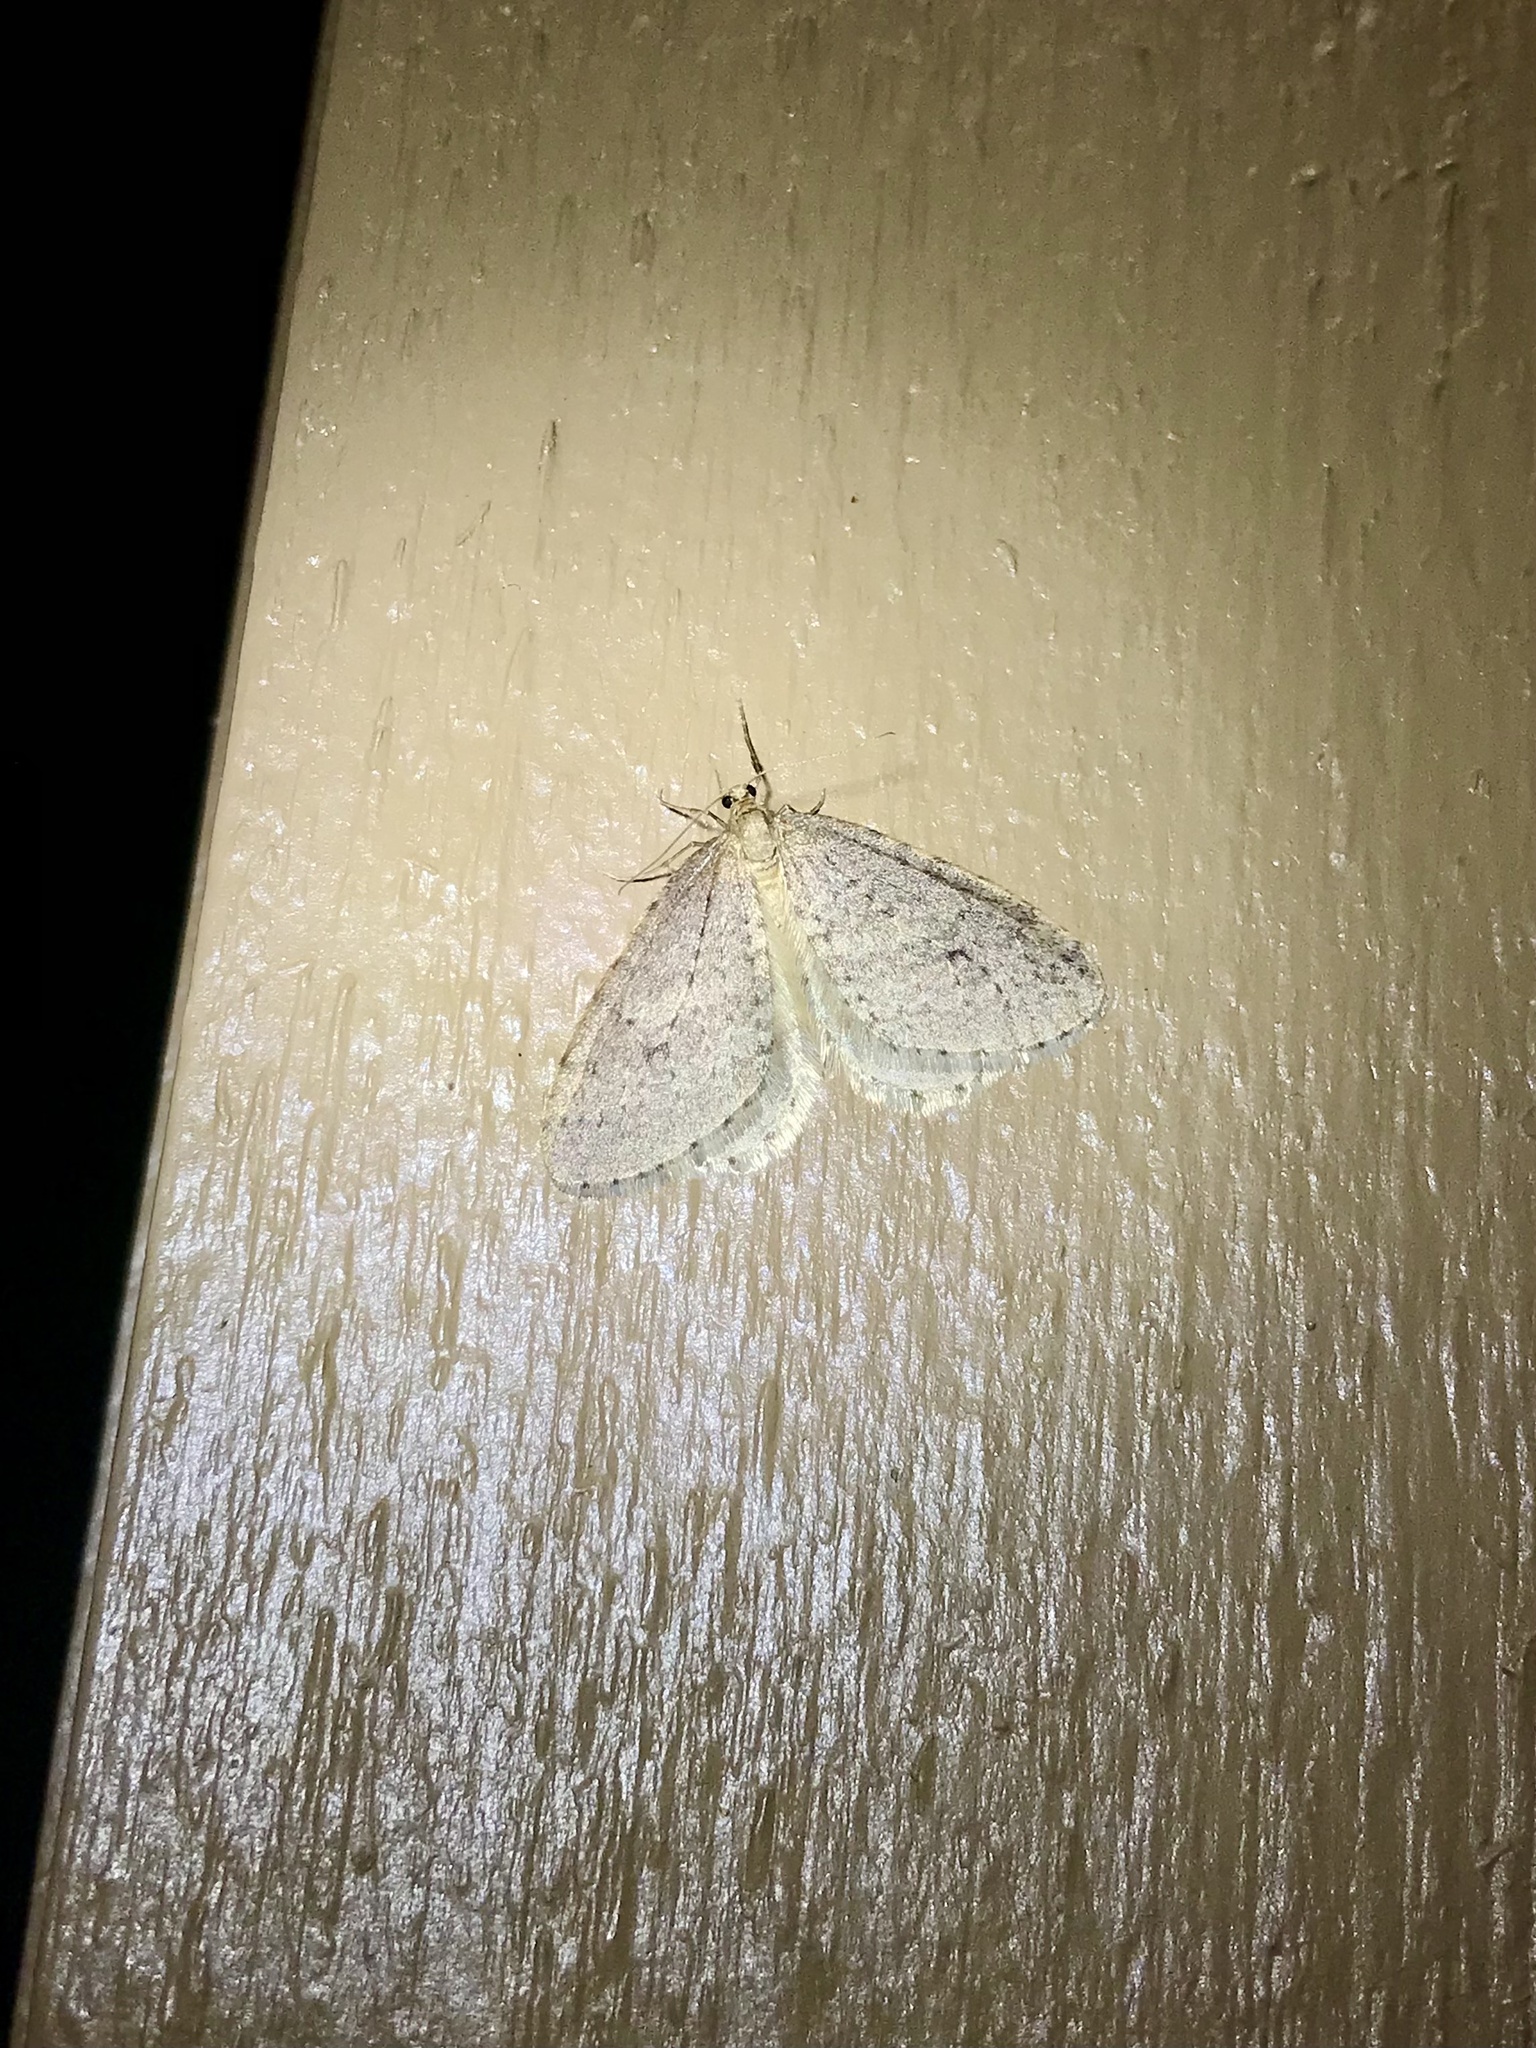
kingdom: Animalia
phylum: Arthropoda
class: Insecta
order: Lepidoptera
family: Geometridae
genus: Operophtera
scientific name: Operophtera bruceata
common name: Bruce spanworm
